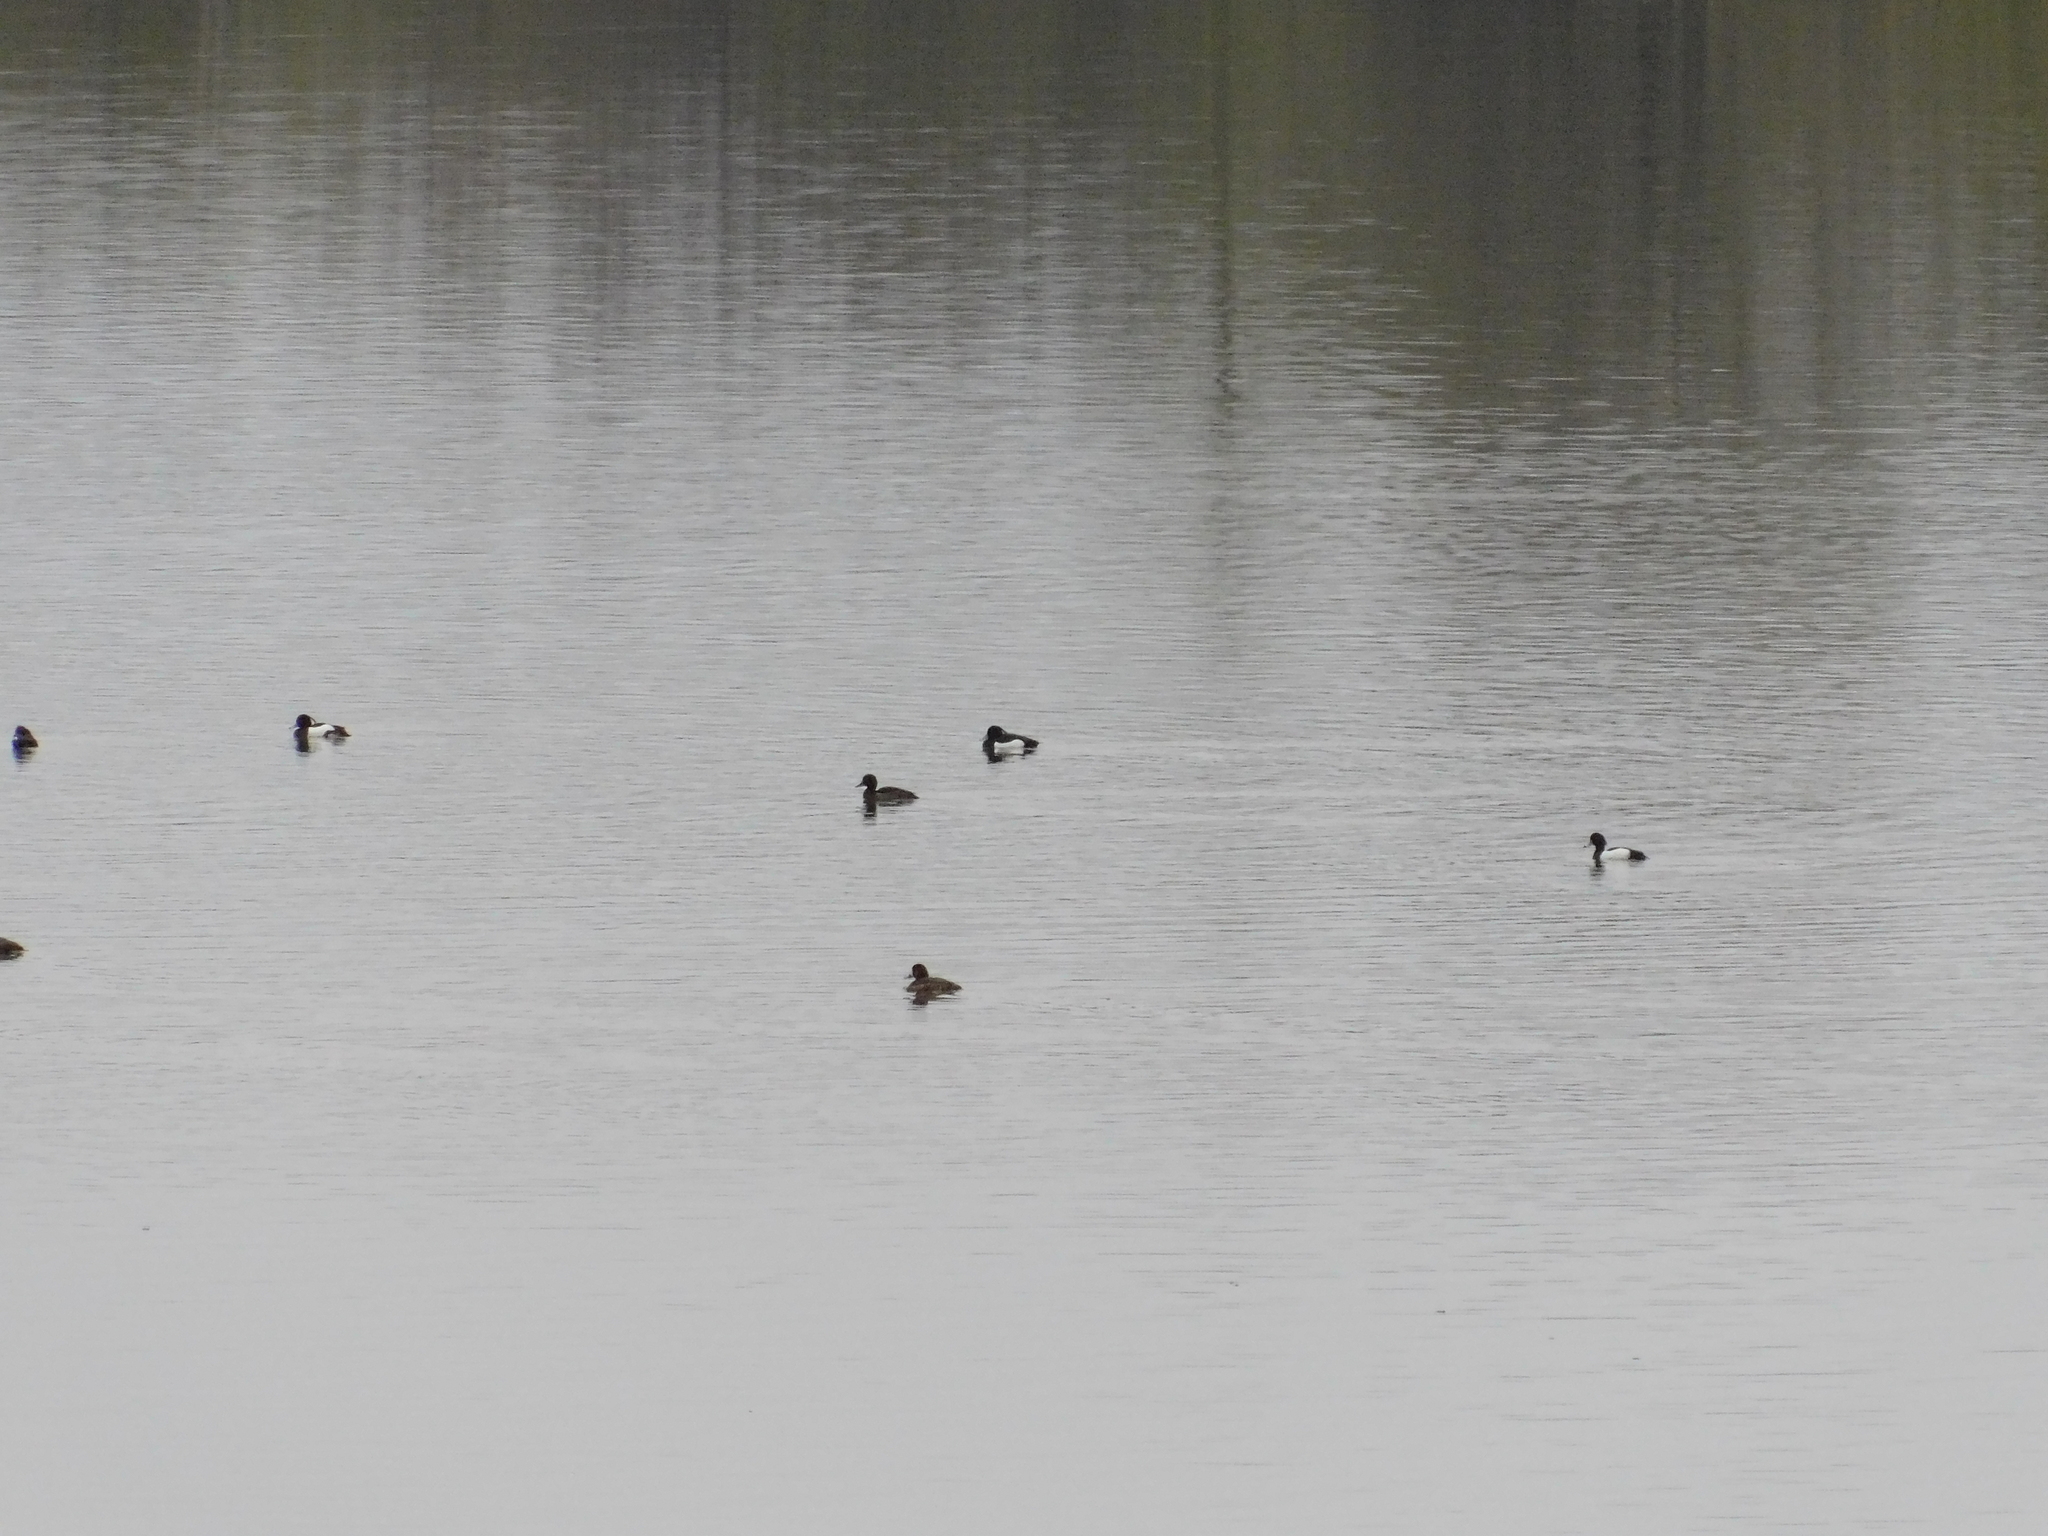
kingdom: Animalia
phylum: Chordata
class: Aves
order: Anseriformes
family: Anatidae
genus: Aythya
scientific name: Aythya fuligula
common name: Tufted duck
